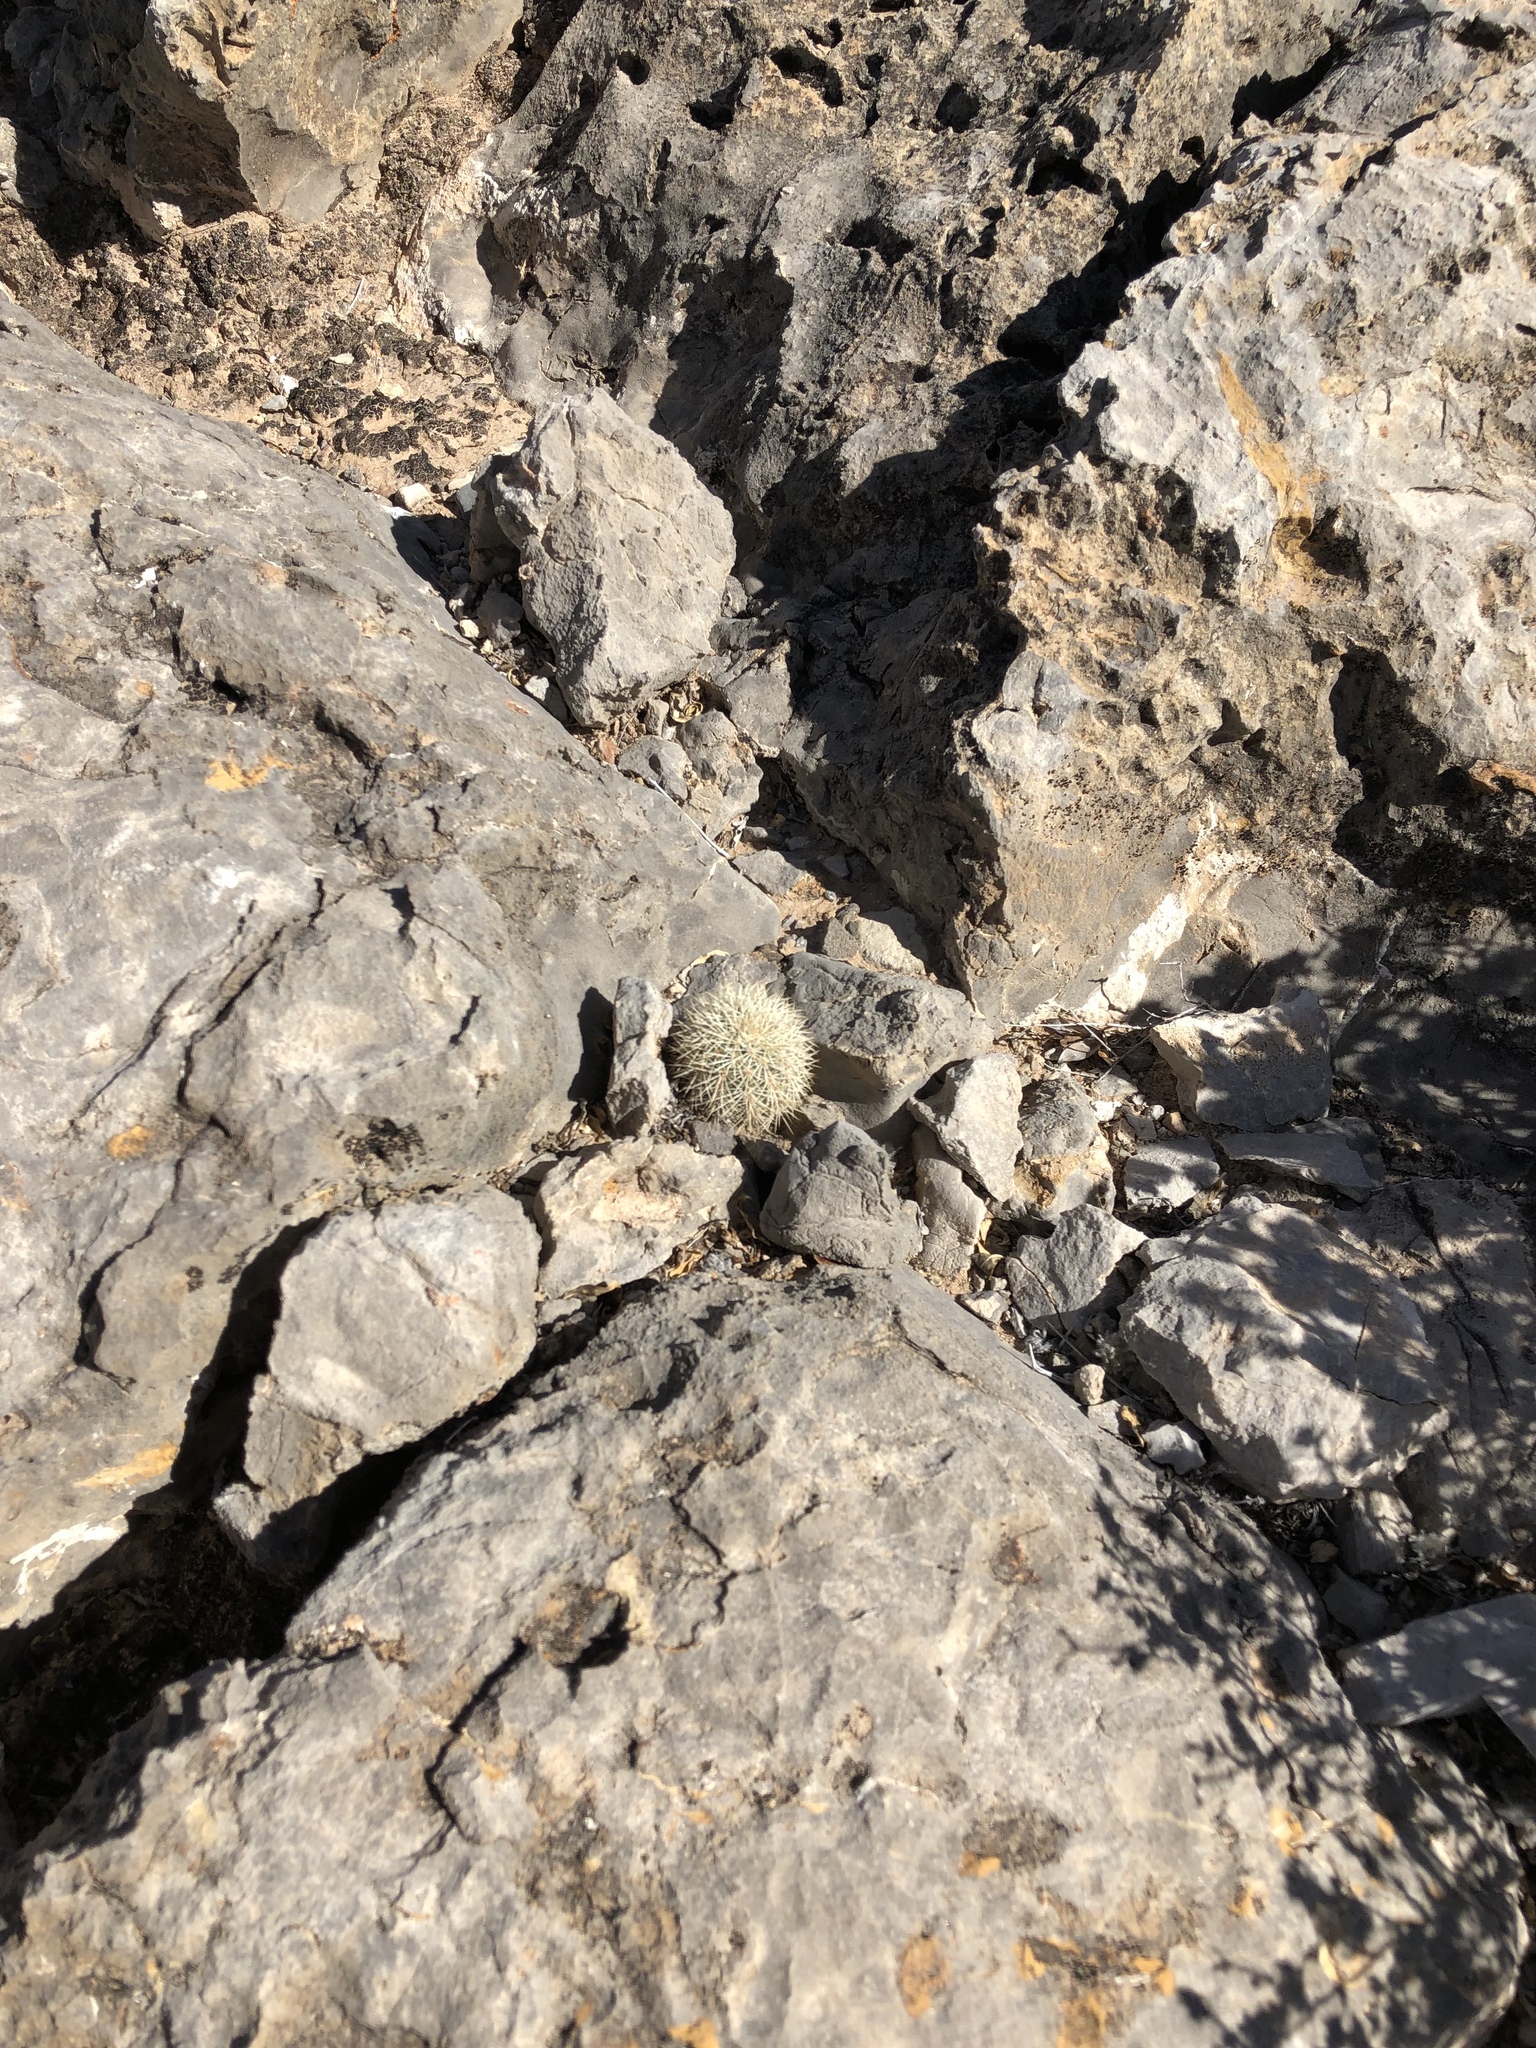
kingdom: Plantae
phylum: Tracheophyta
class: Magnoliopsida
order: Caryophyllales
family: Cactaceae
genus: Echinocereus
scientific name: Echinocereus roetteri
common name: Lloyd's hedgehog cactus
